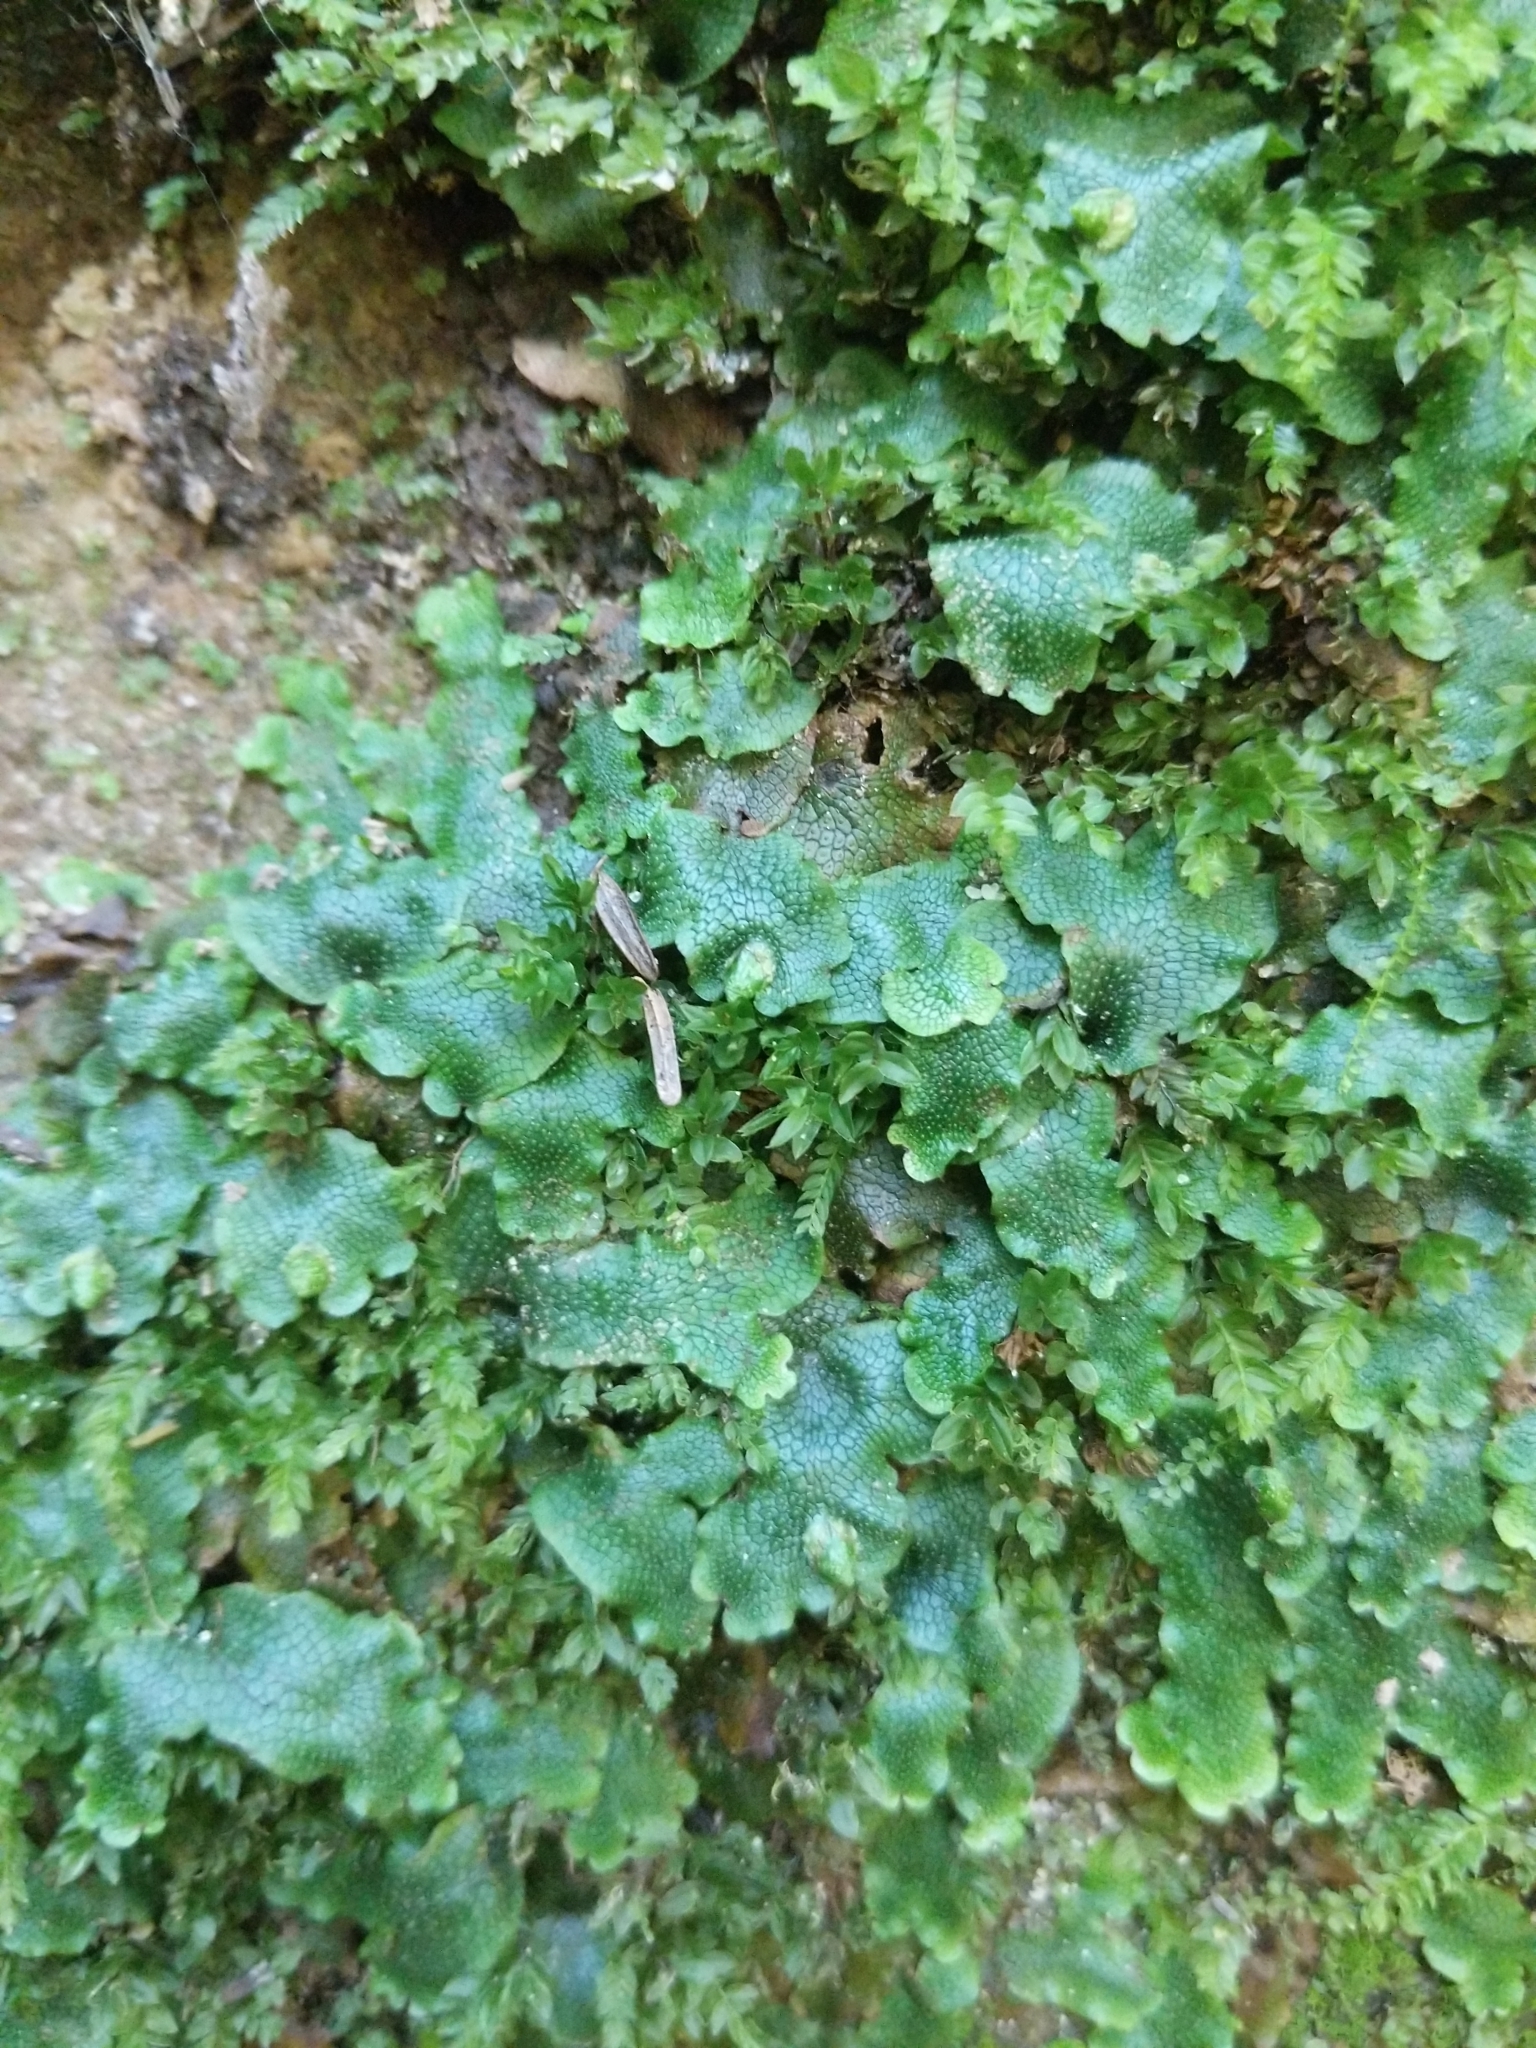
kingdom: Plantae
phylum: Marchantiophyta
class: Marchantiopsida
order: Marchantiales
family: Conocephalaceae
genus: Conocephalum
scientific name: Conocephalum salebrosum
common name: Cat-tongue liverwort
